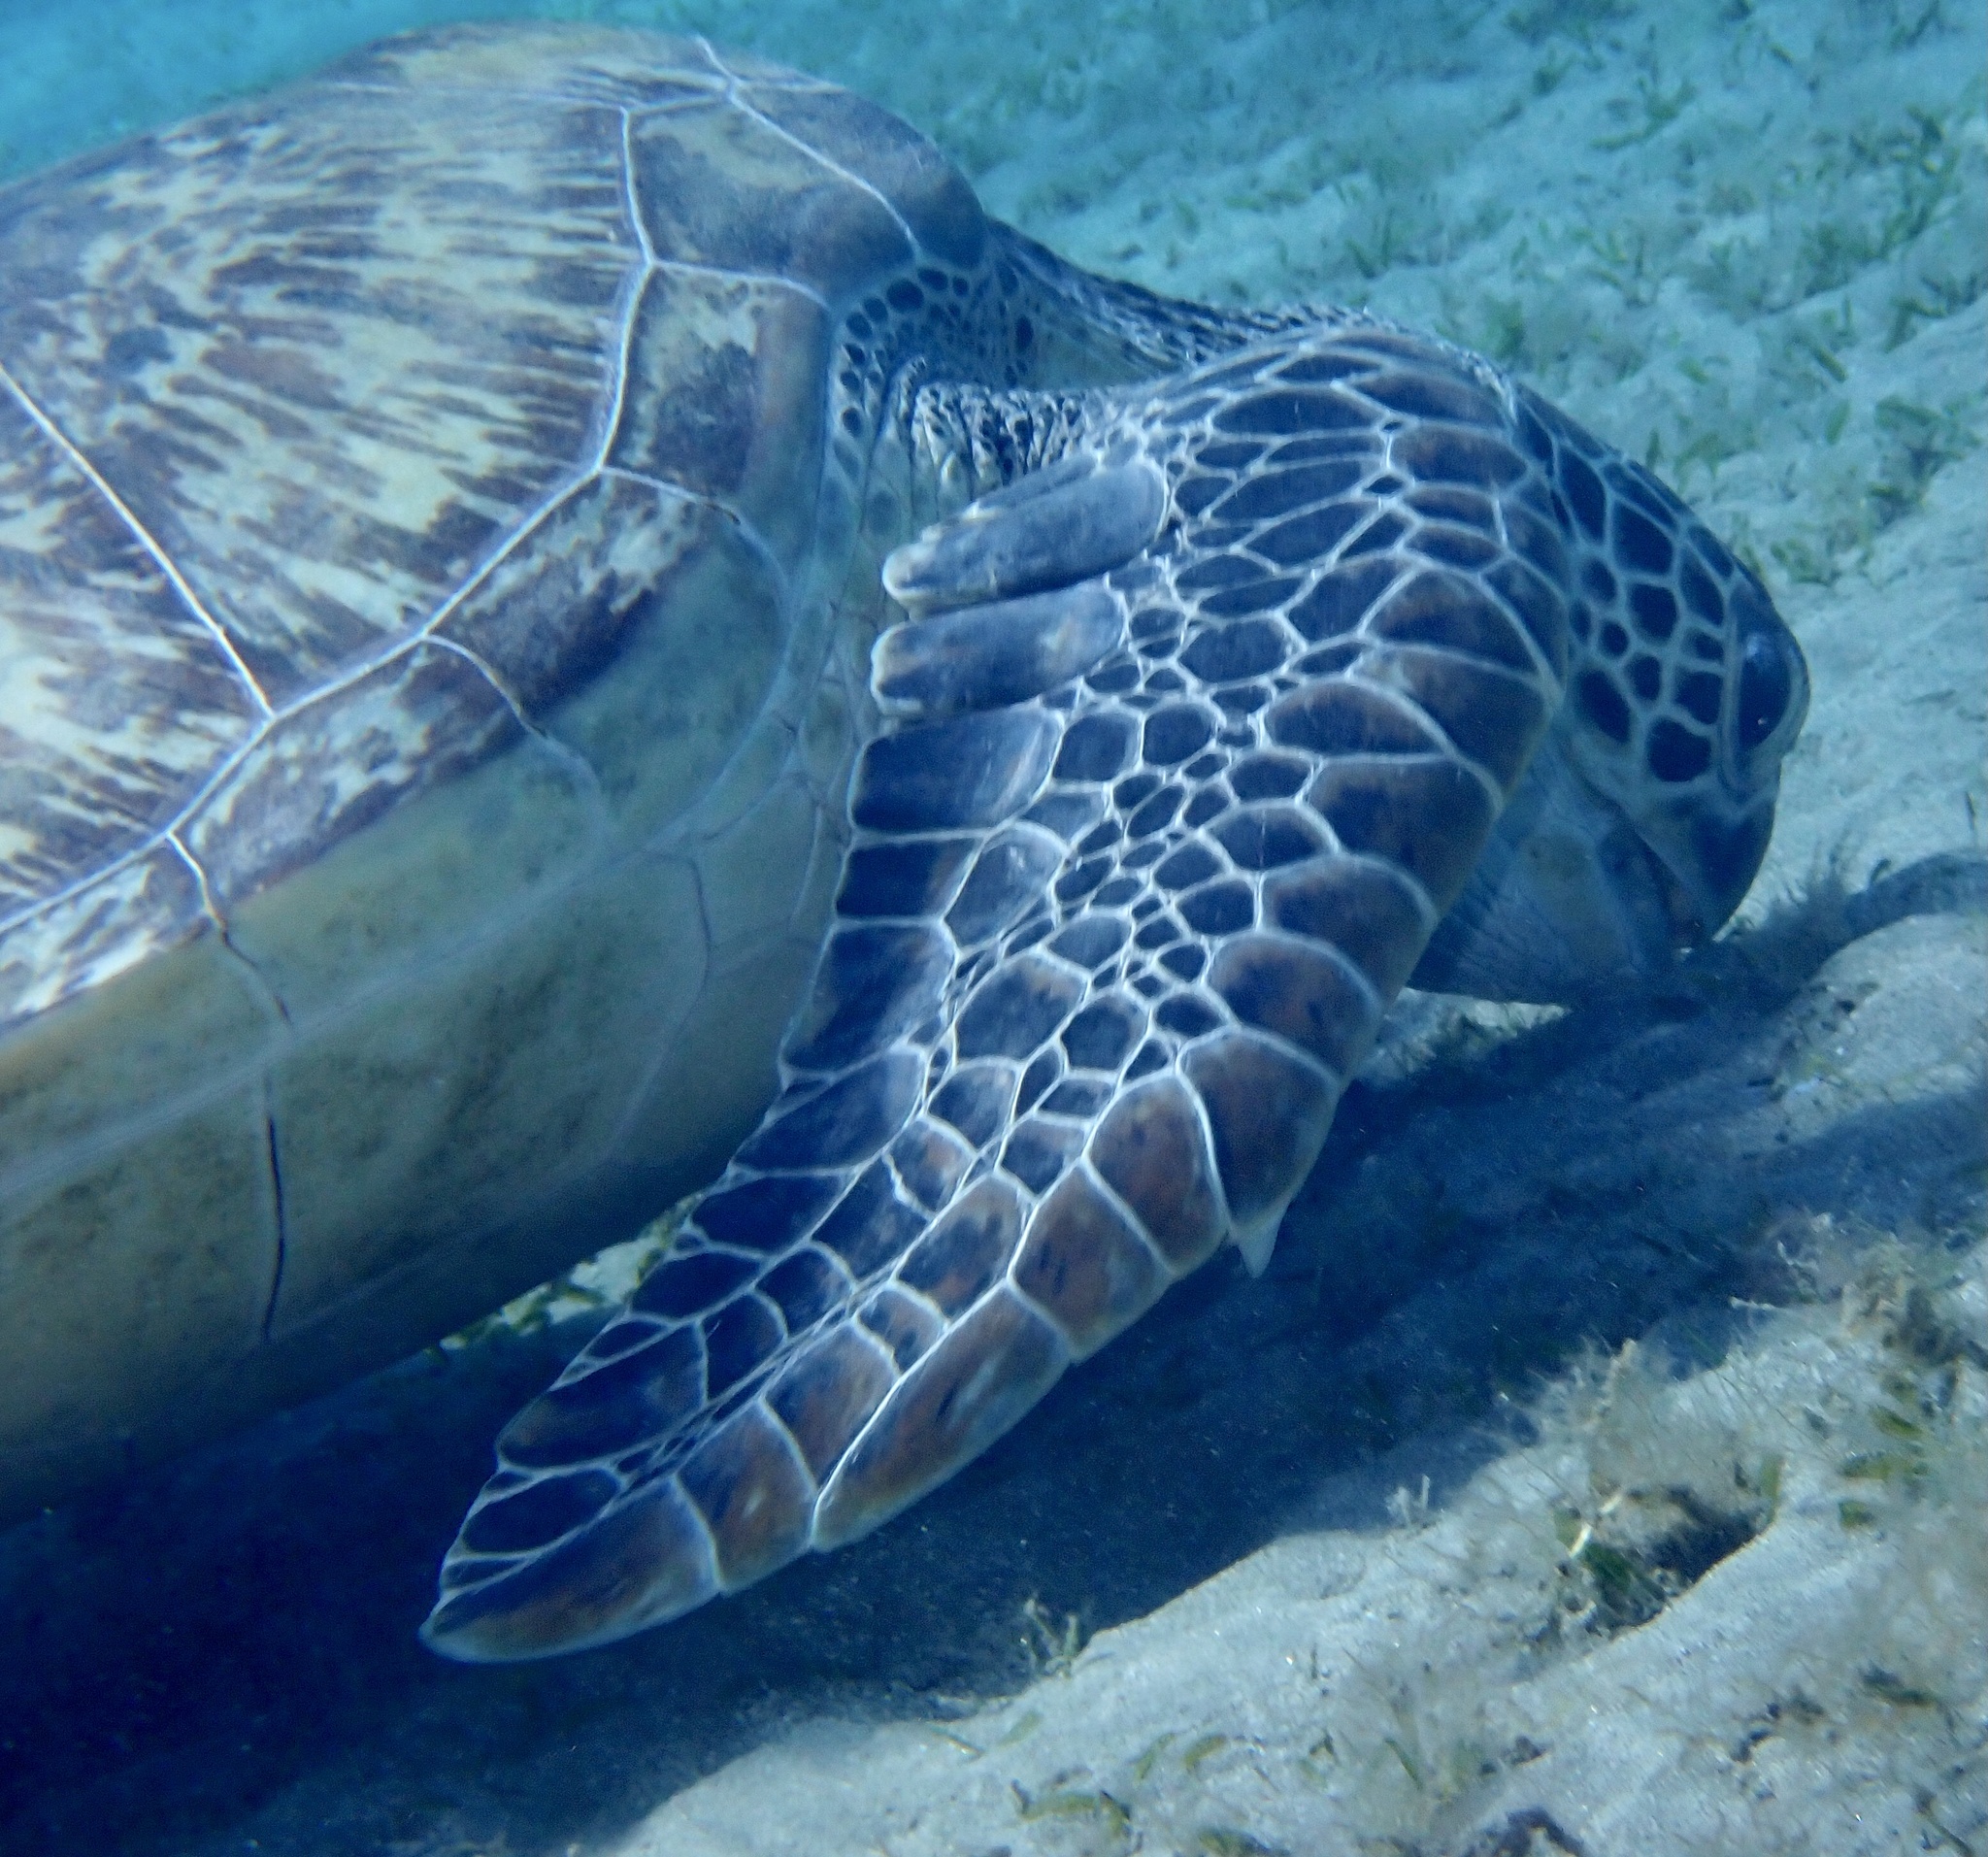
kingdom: Animalia
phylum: Chordata
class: Testudines
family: Cheloniidae
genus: Chelonia
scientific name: Chelonia mydas
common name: Green turtle
